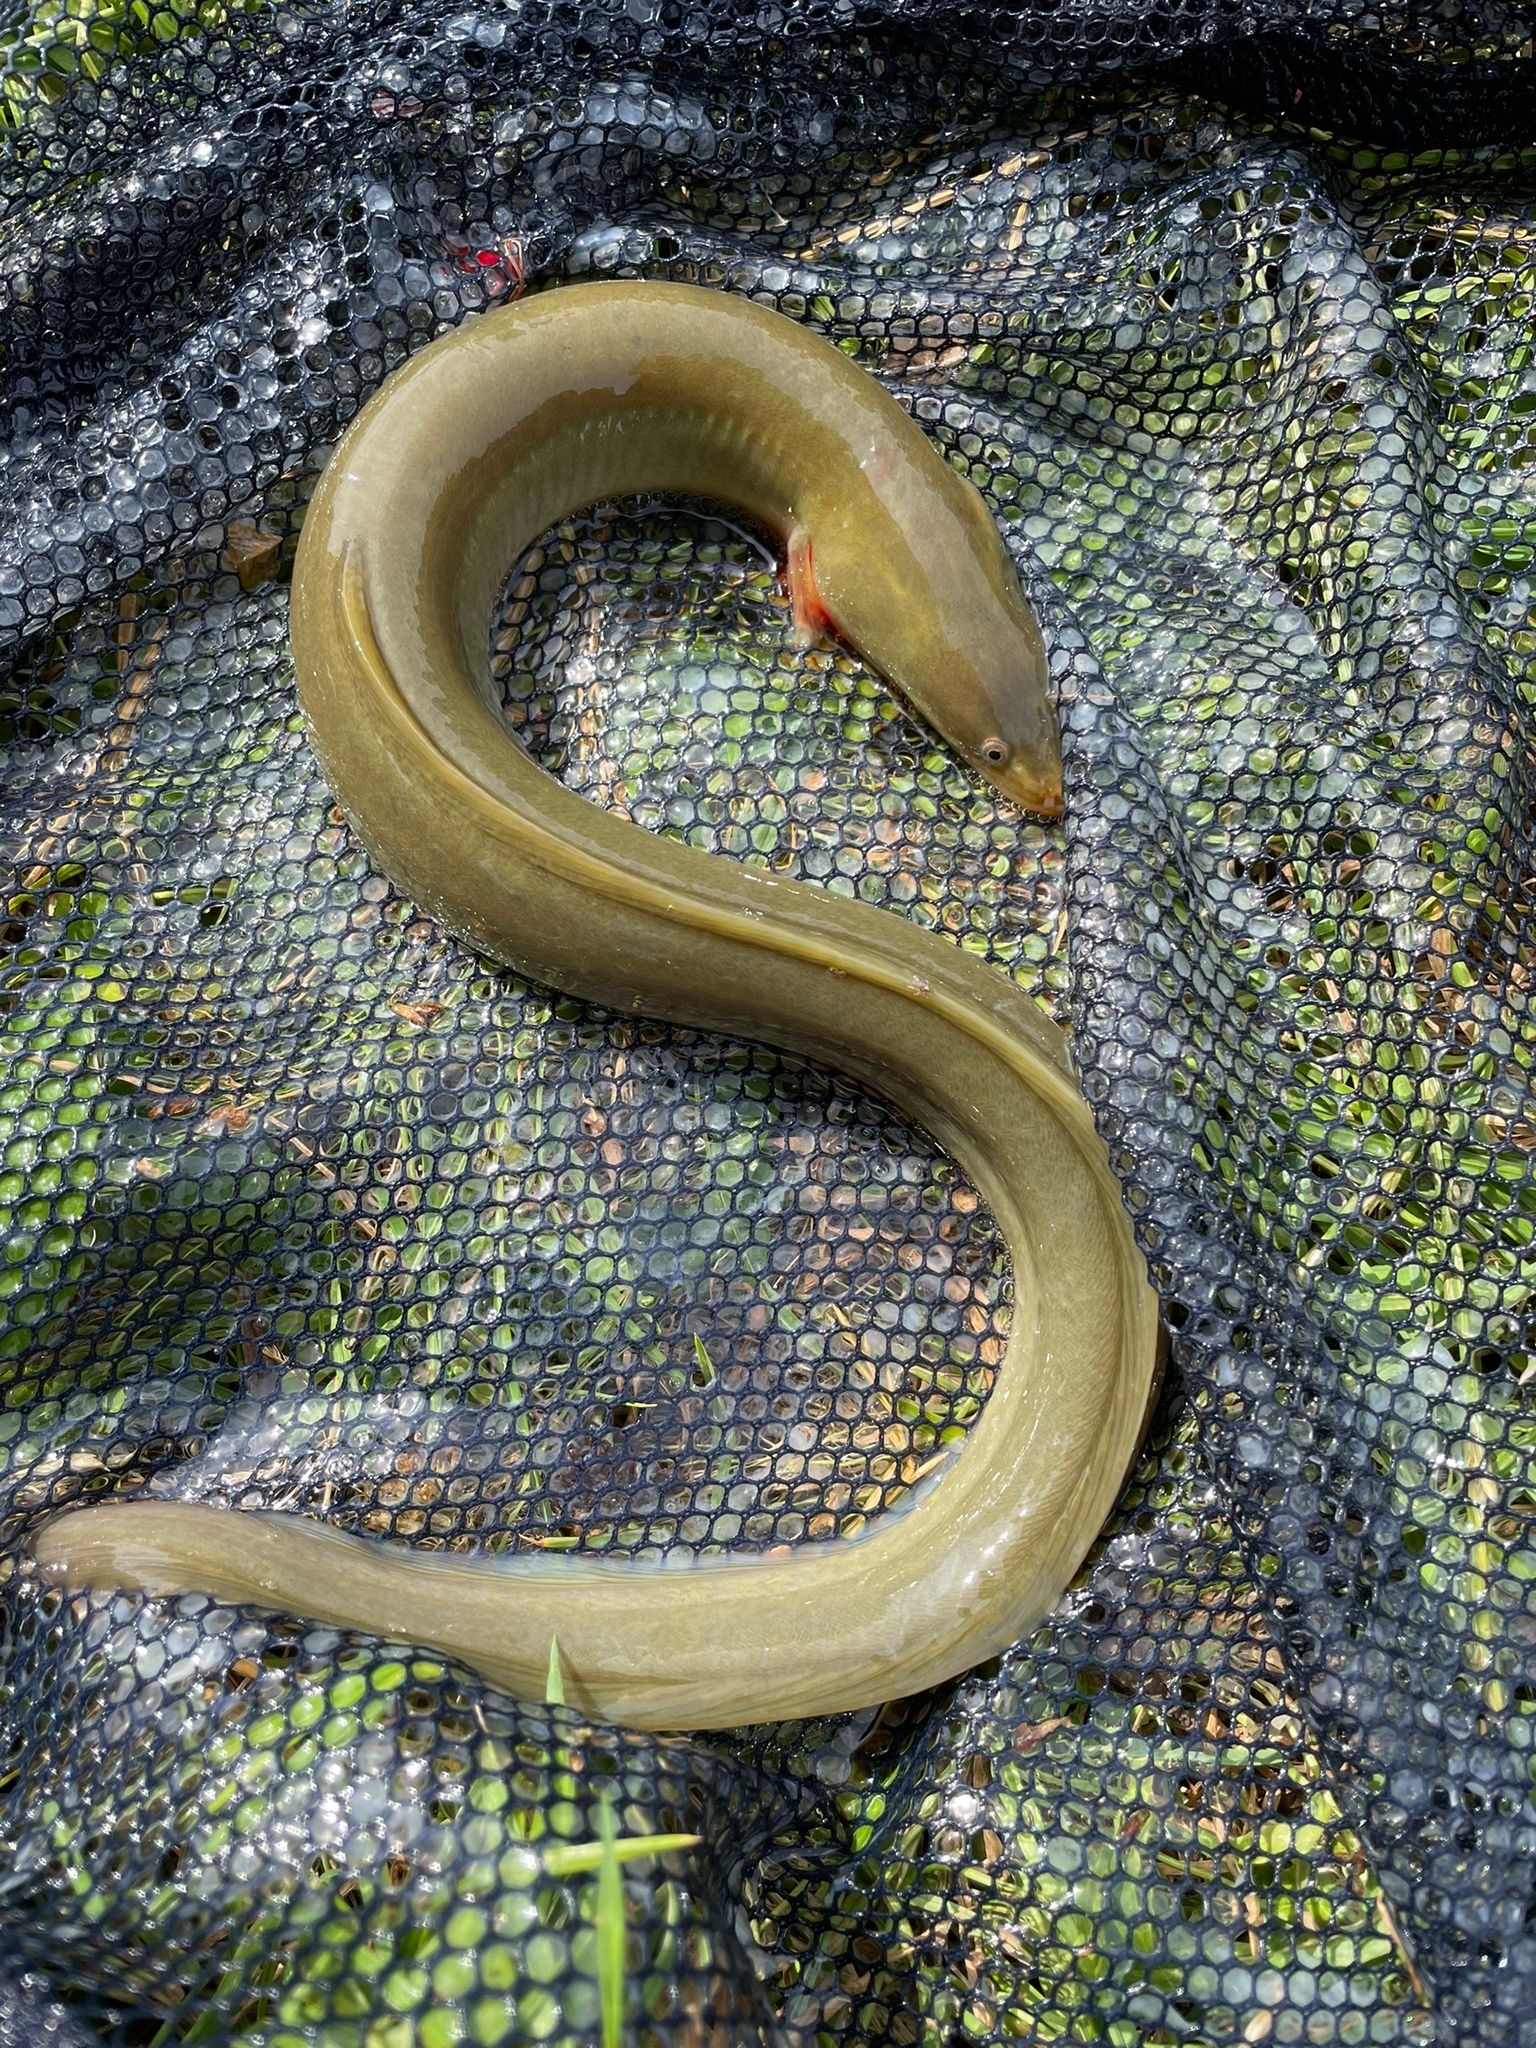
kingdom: Animalia
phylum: Chordata
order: Anguilliformes
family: Anguillidae
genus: Anguilla
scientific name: Anguilla anguilla
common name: European eel
